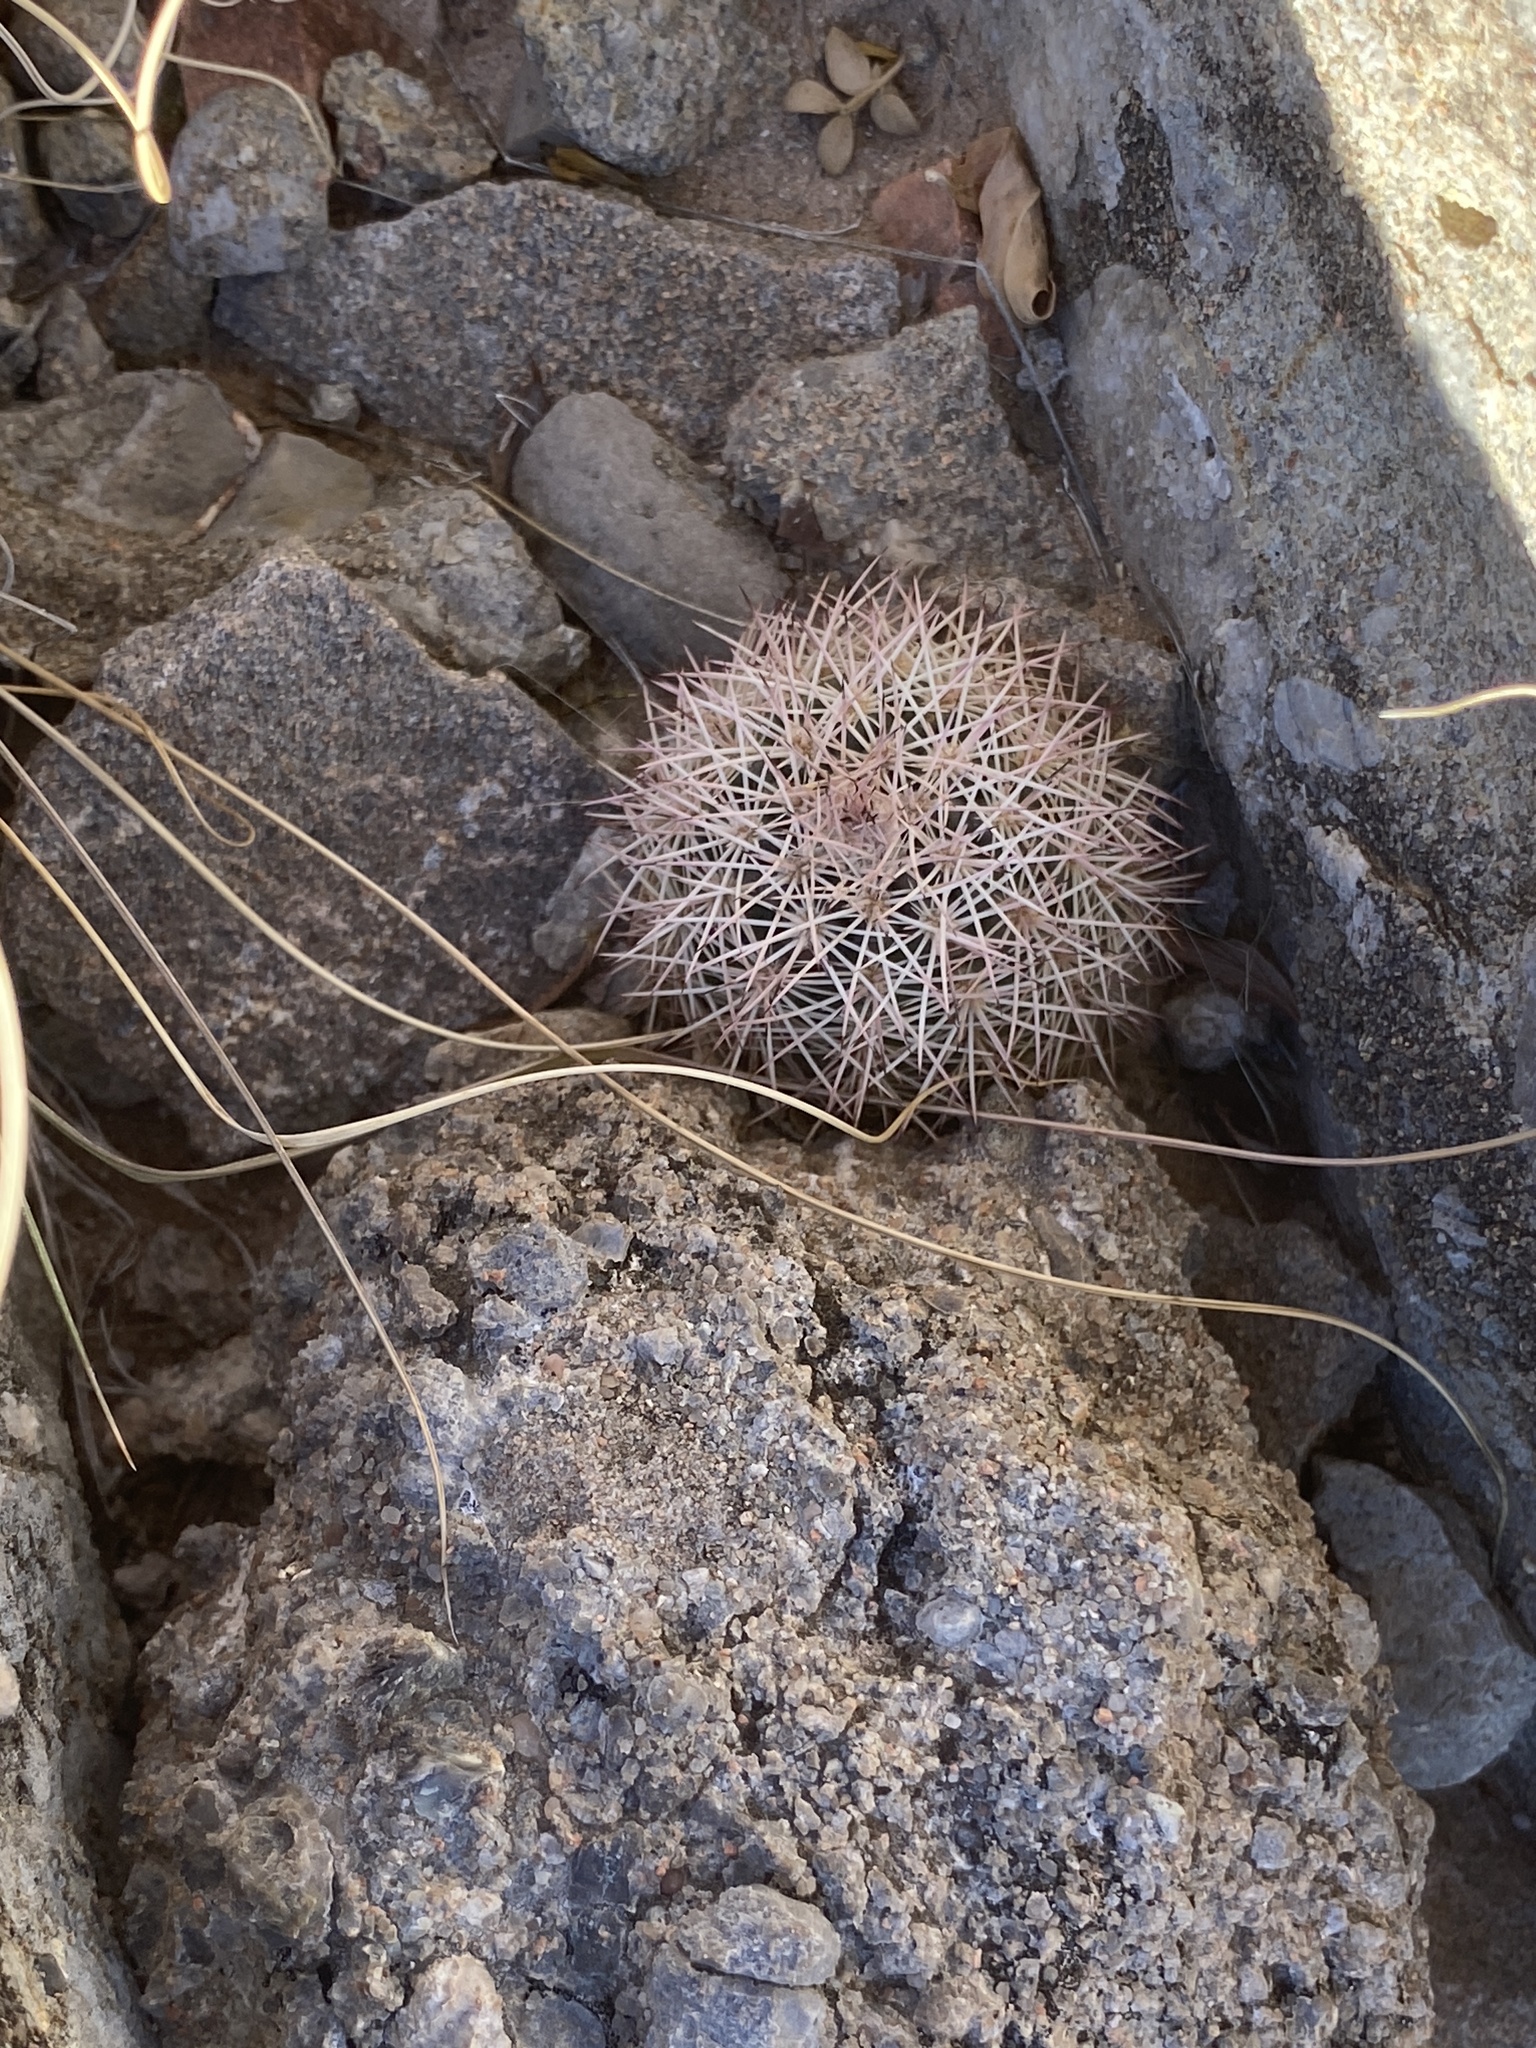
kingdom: Plantae
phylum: Tracheophyta
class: Magnoliopsida
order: Caryophyllales
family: Cactaceae
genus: Echinocereus
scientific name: Echinocereus dasyacanthus
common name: Spiny hedgehog cactus
